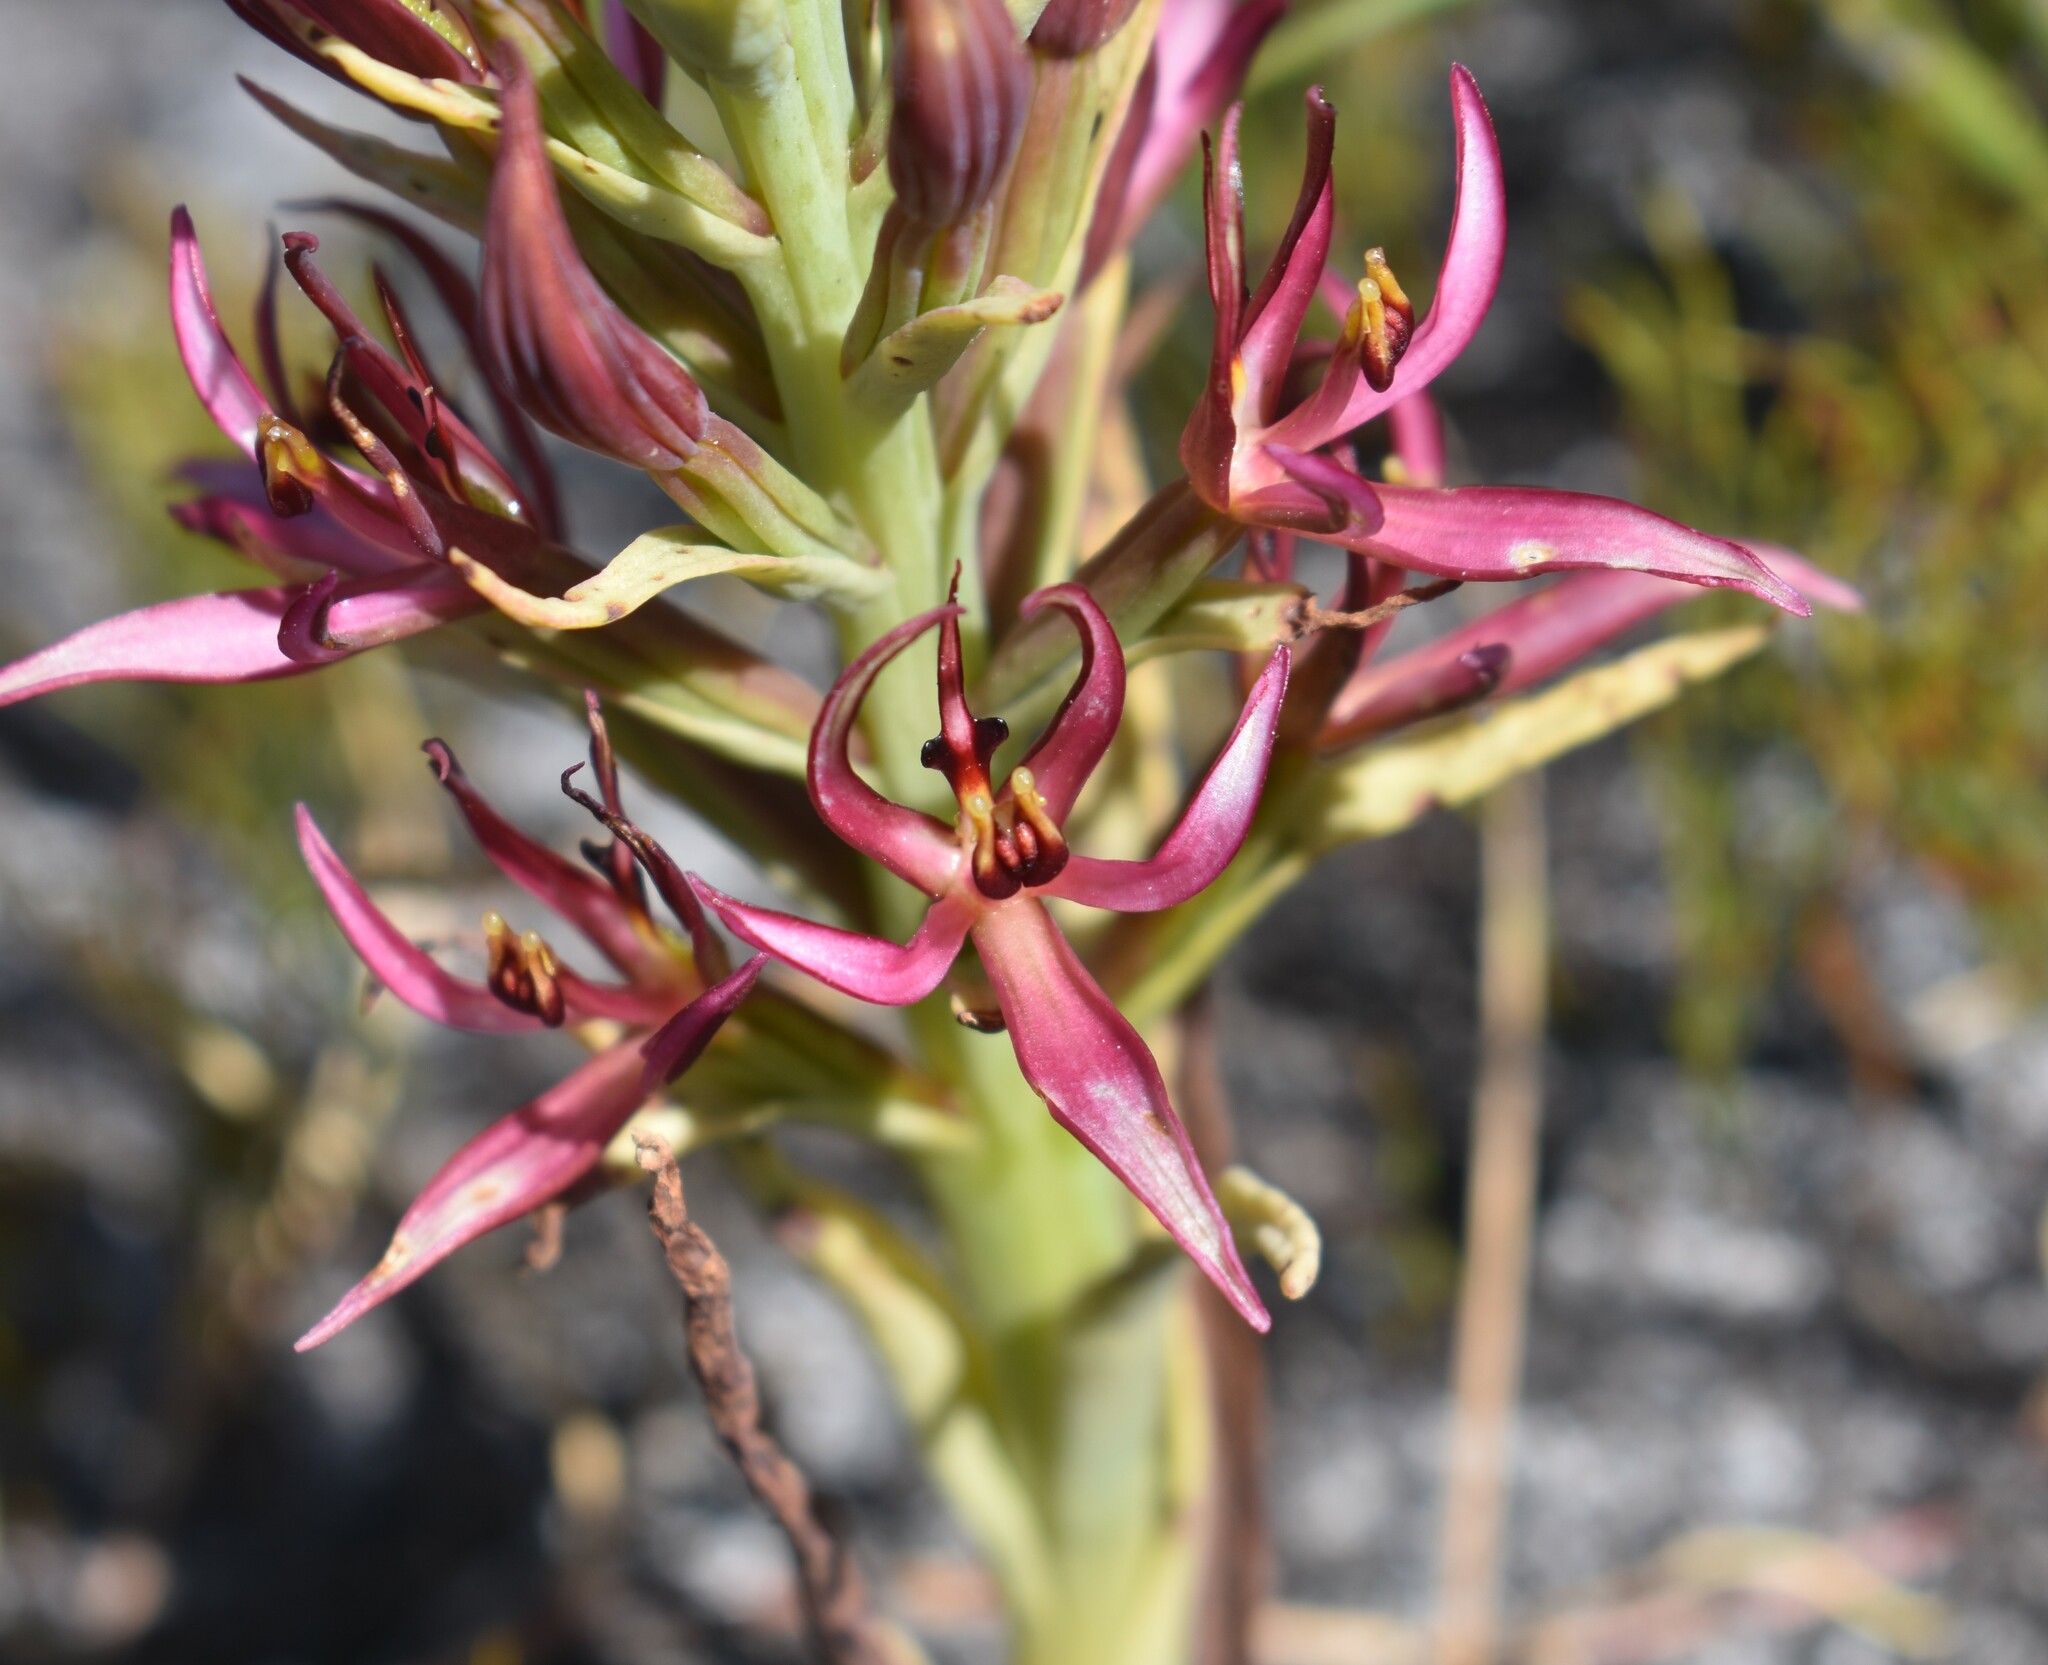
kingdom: Plantae
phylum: Tracheophyta
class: Liliopsida
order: Asparagales
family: Orchidaceae
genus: Pachites
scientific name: Pachites bodkinii
